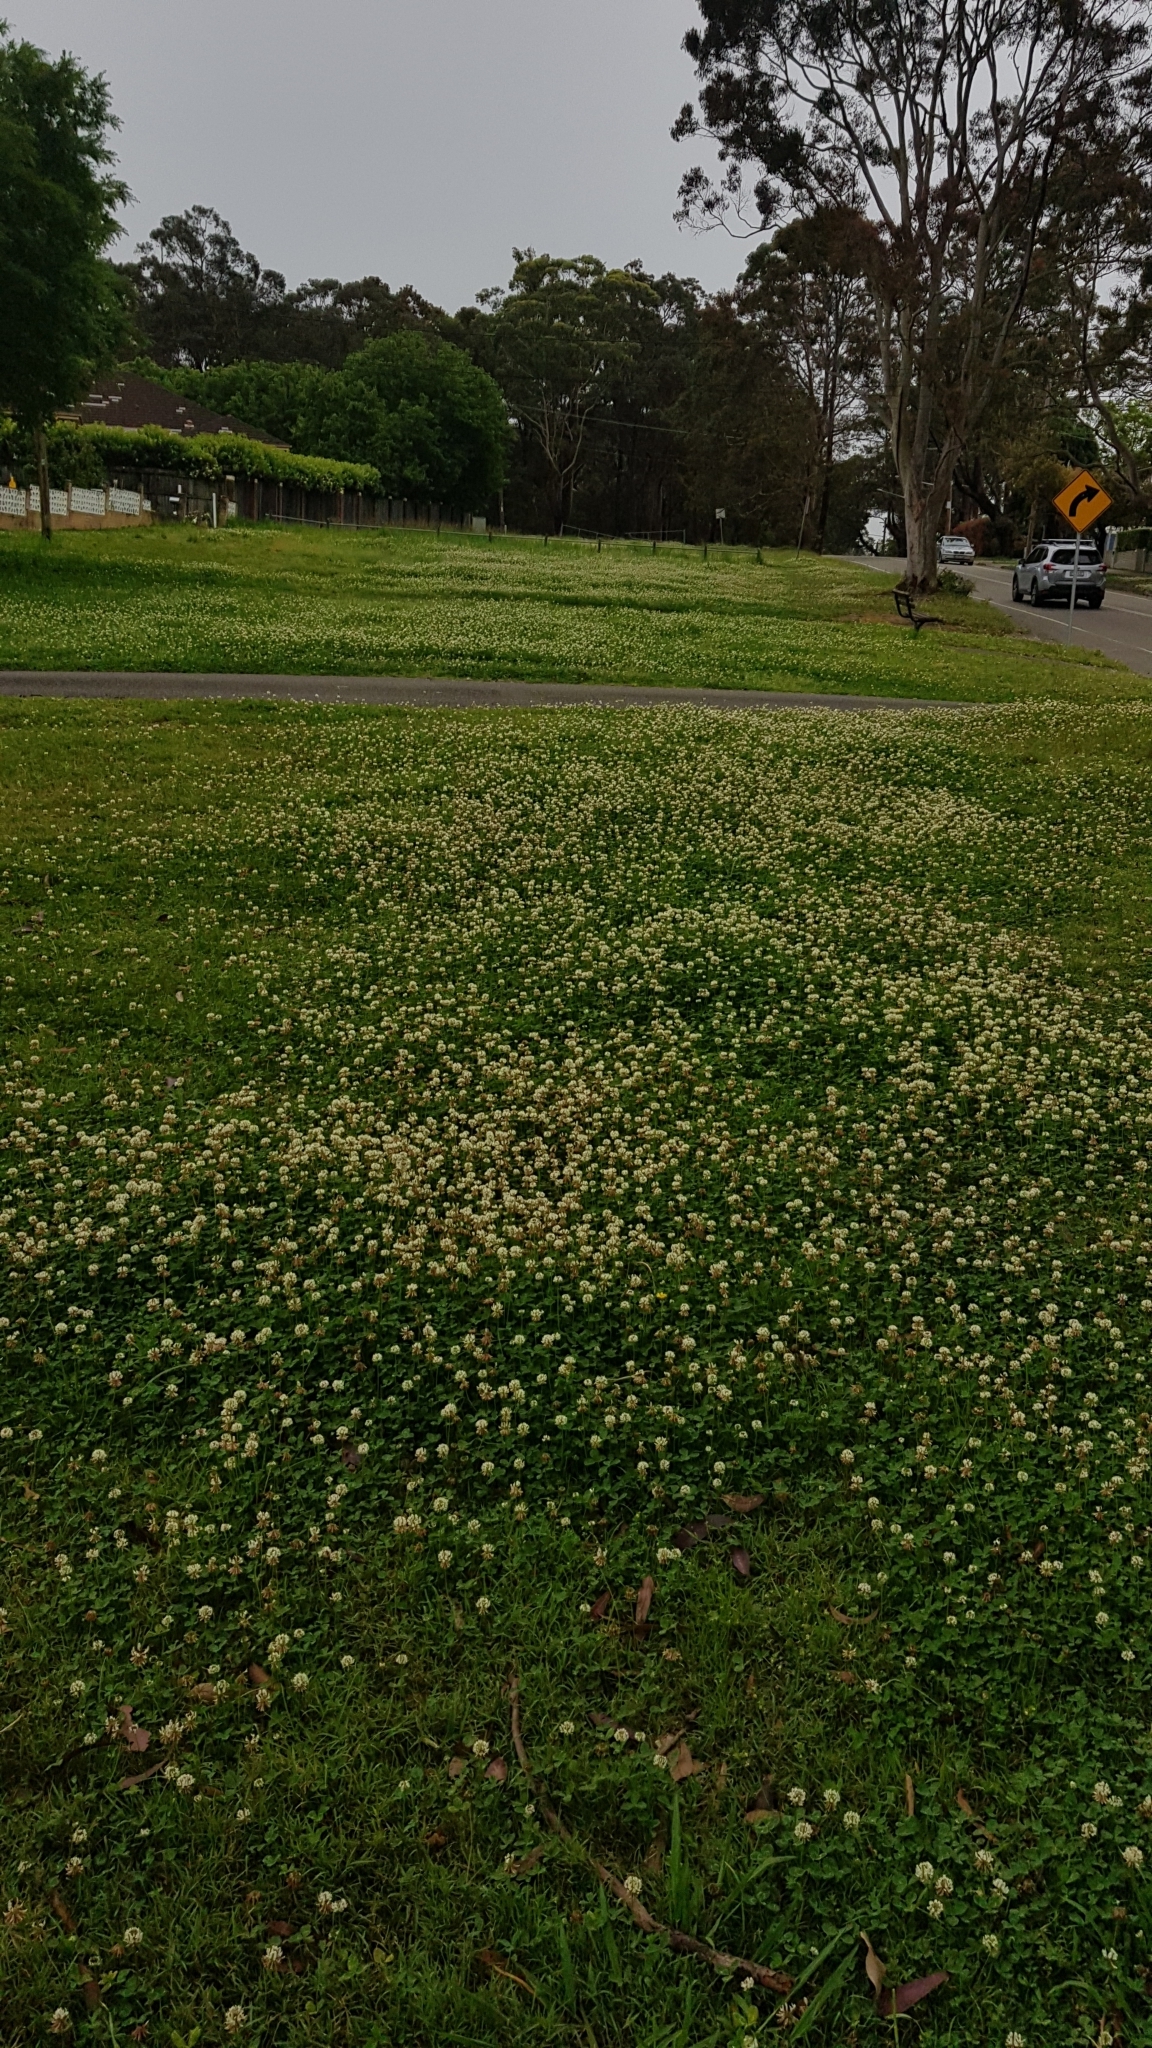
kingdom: Plantae
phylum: Tracheophyta
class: Magnoliopsida
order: Fabales
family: Fabaceae
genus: Trifolium
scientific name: Trifolium repens
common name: White clover
